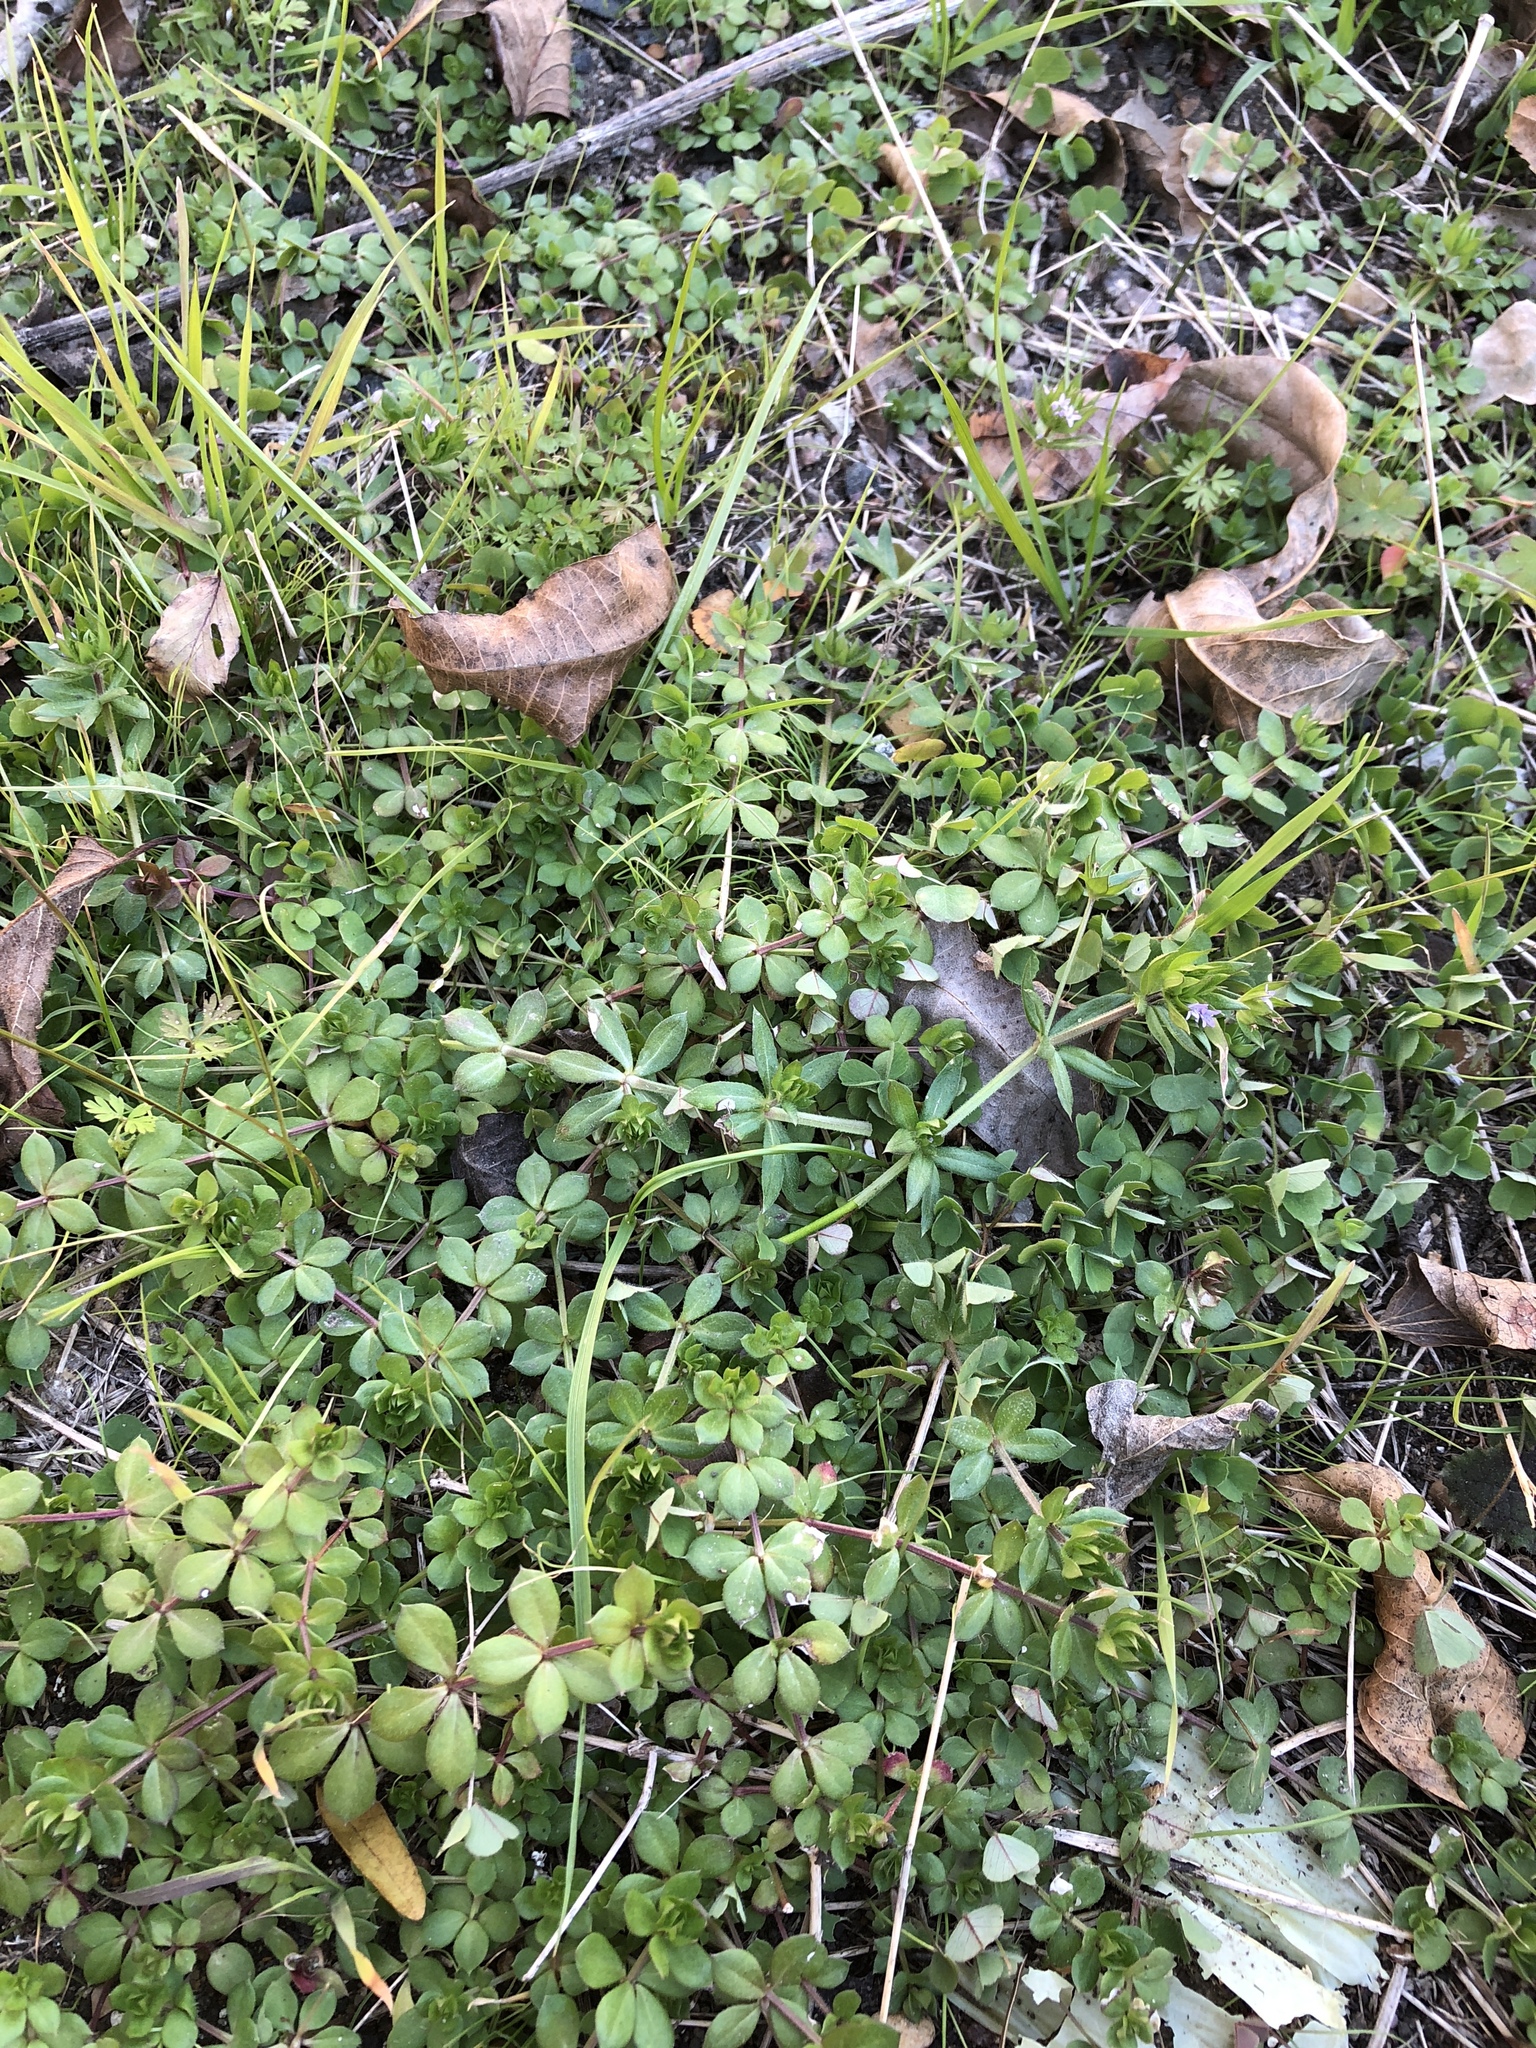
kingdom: Plantae
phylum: Tracheophyta
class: Magnoliopsida
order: Gentianales
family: Rubiaceae
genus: Sherardia
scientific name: Sherardia arvensis
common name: Field madder
